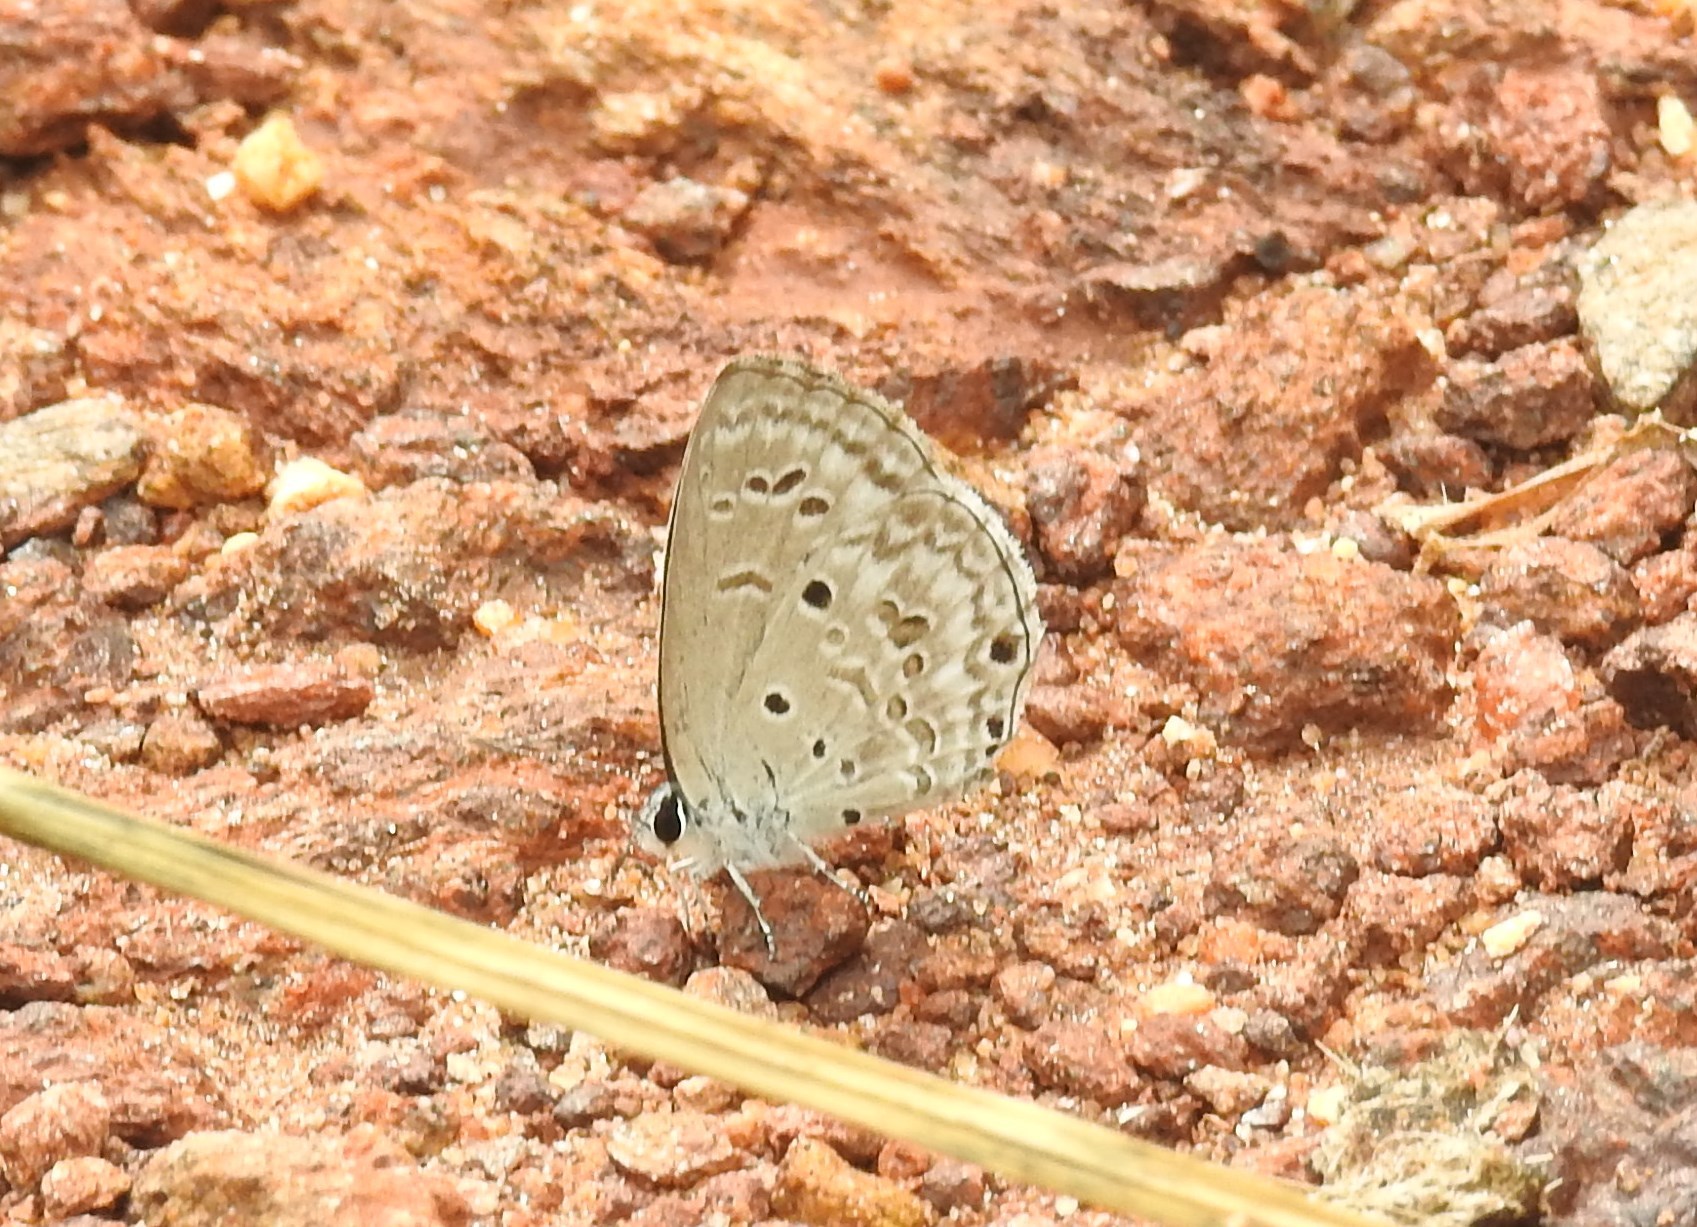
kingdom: Animalia
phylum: Arthropoda
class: Insecta
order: Lepidoptera
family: Lycaenidae
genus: Chilades
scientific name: Chilades laius
